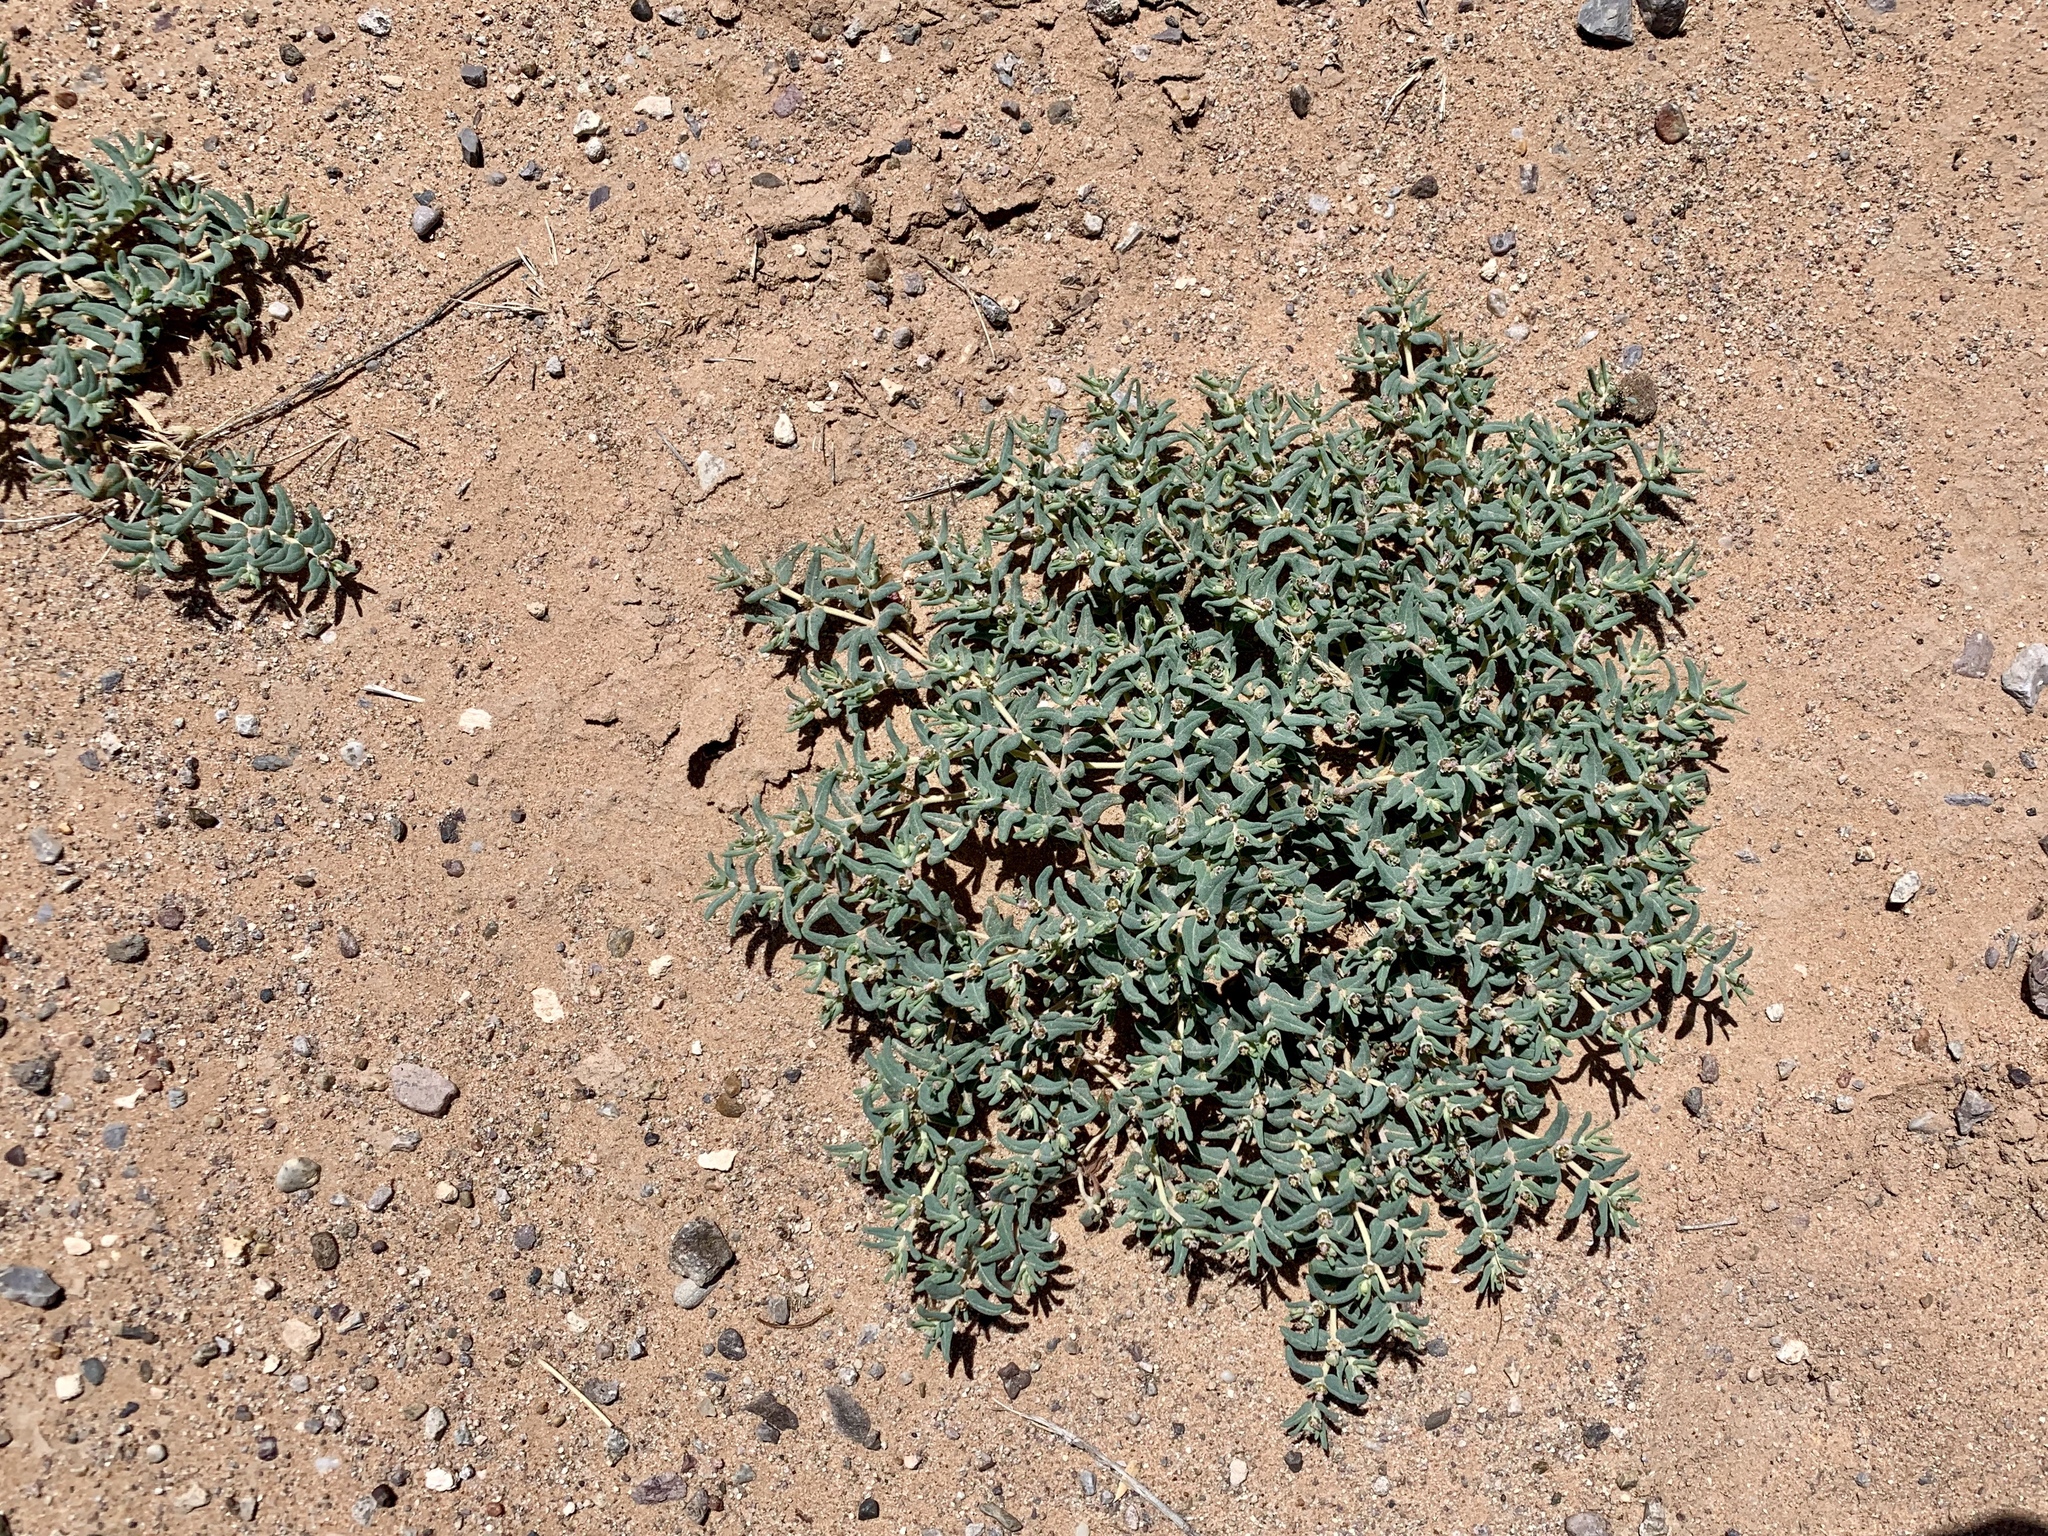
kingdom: Plantae
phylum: Tracheophyta
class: Magnoliopsida
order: Malpighiales
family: Euphorbiaceae
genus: Euphorbia
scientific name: Euphorbia lata
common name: Hoary euphorbia
